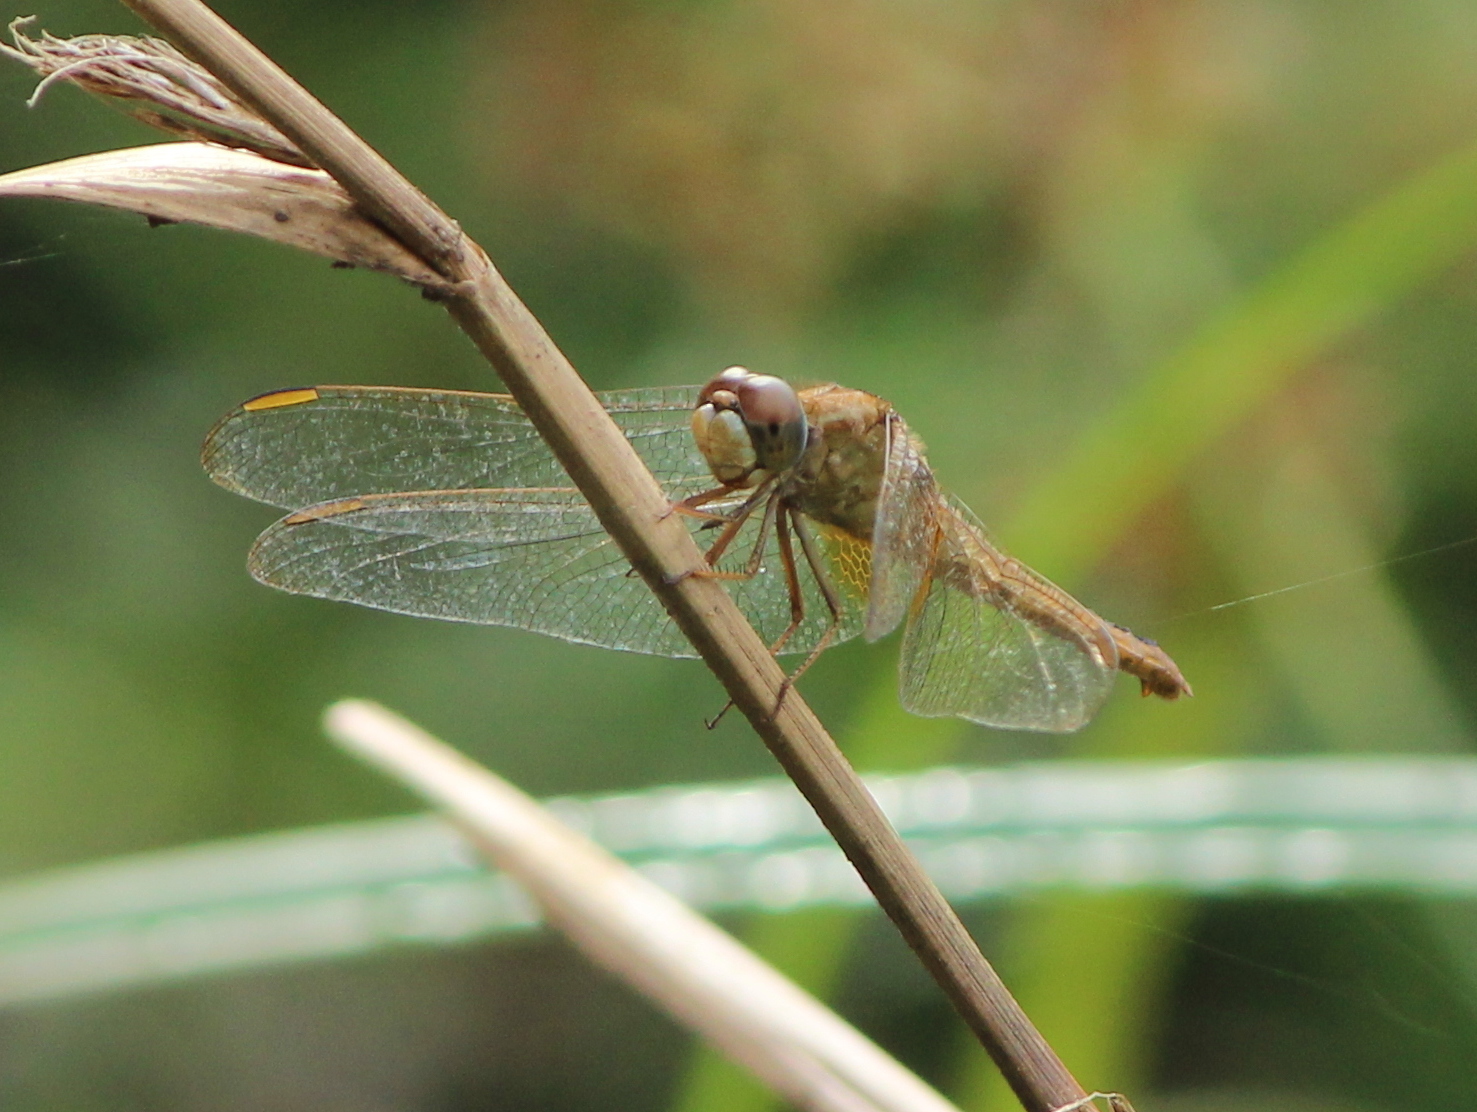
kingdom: Animalia
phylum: Arthropoda
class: Insecta
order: Odonata
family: Libellulidae
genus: Crocothemis
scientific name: Crocothemis servilia
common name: Scarlet skimmer
